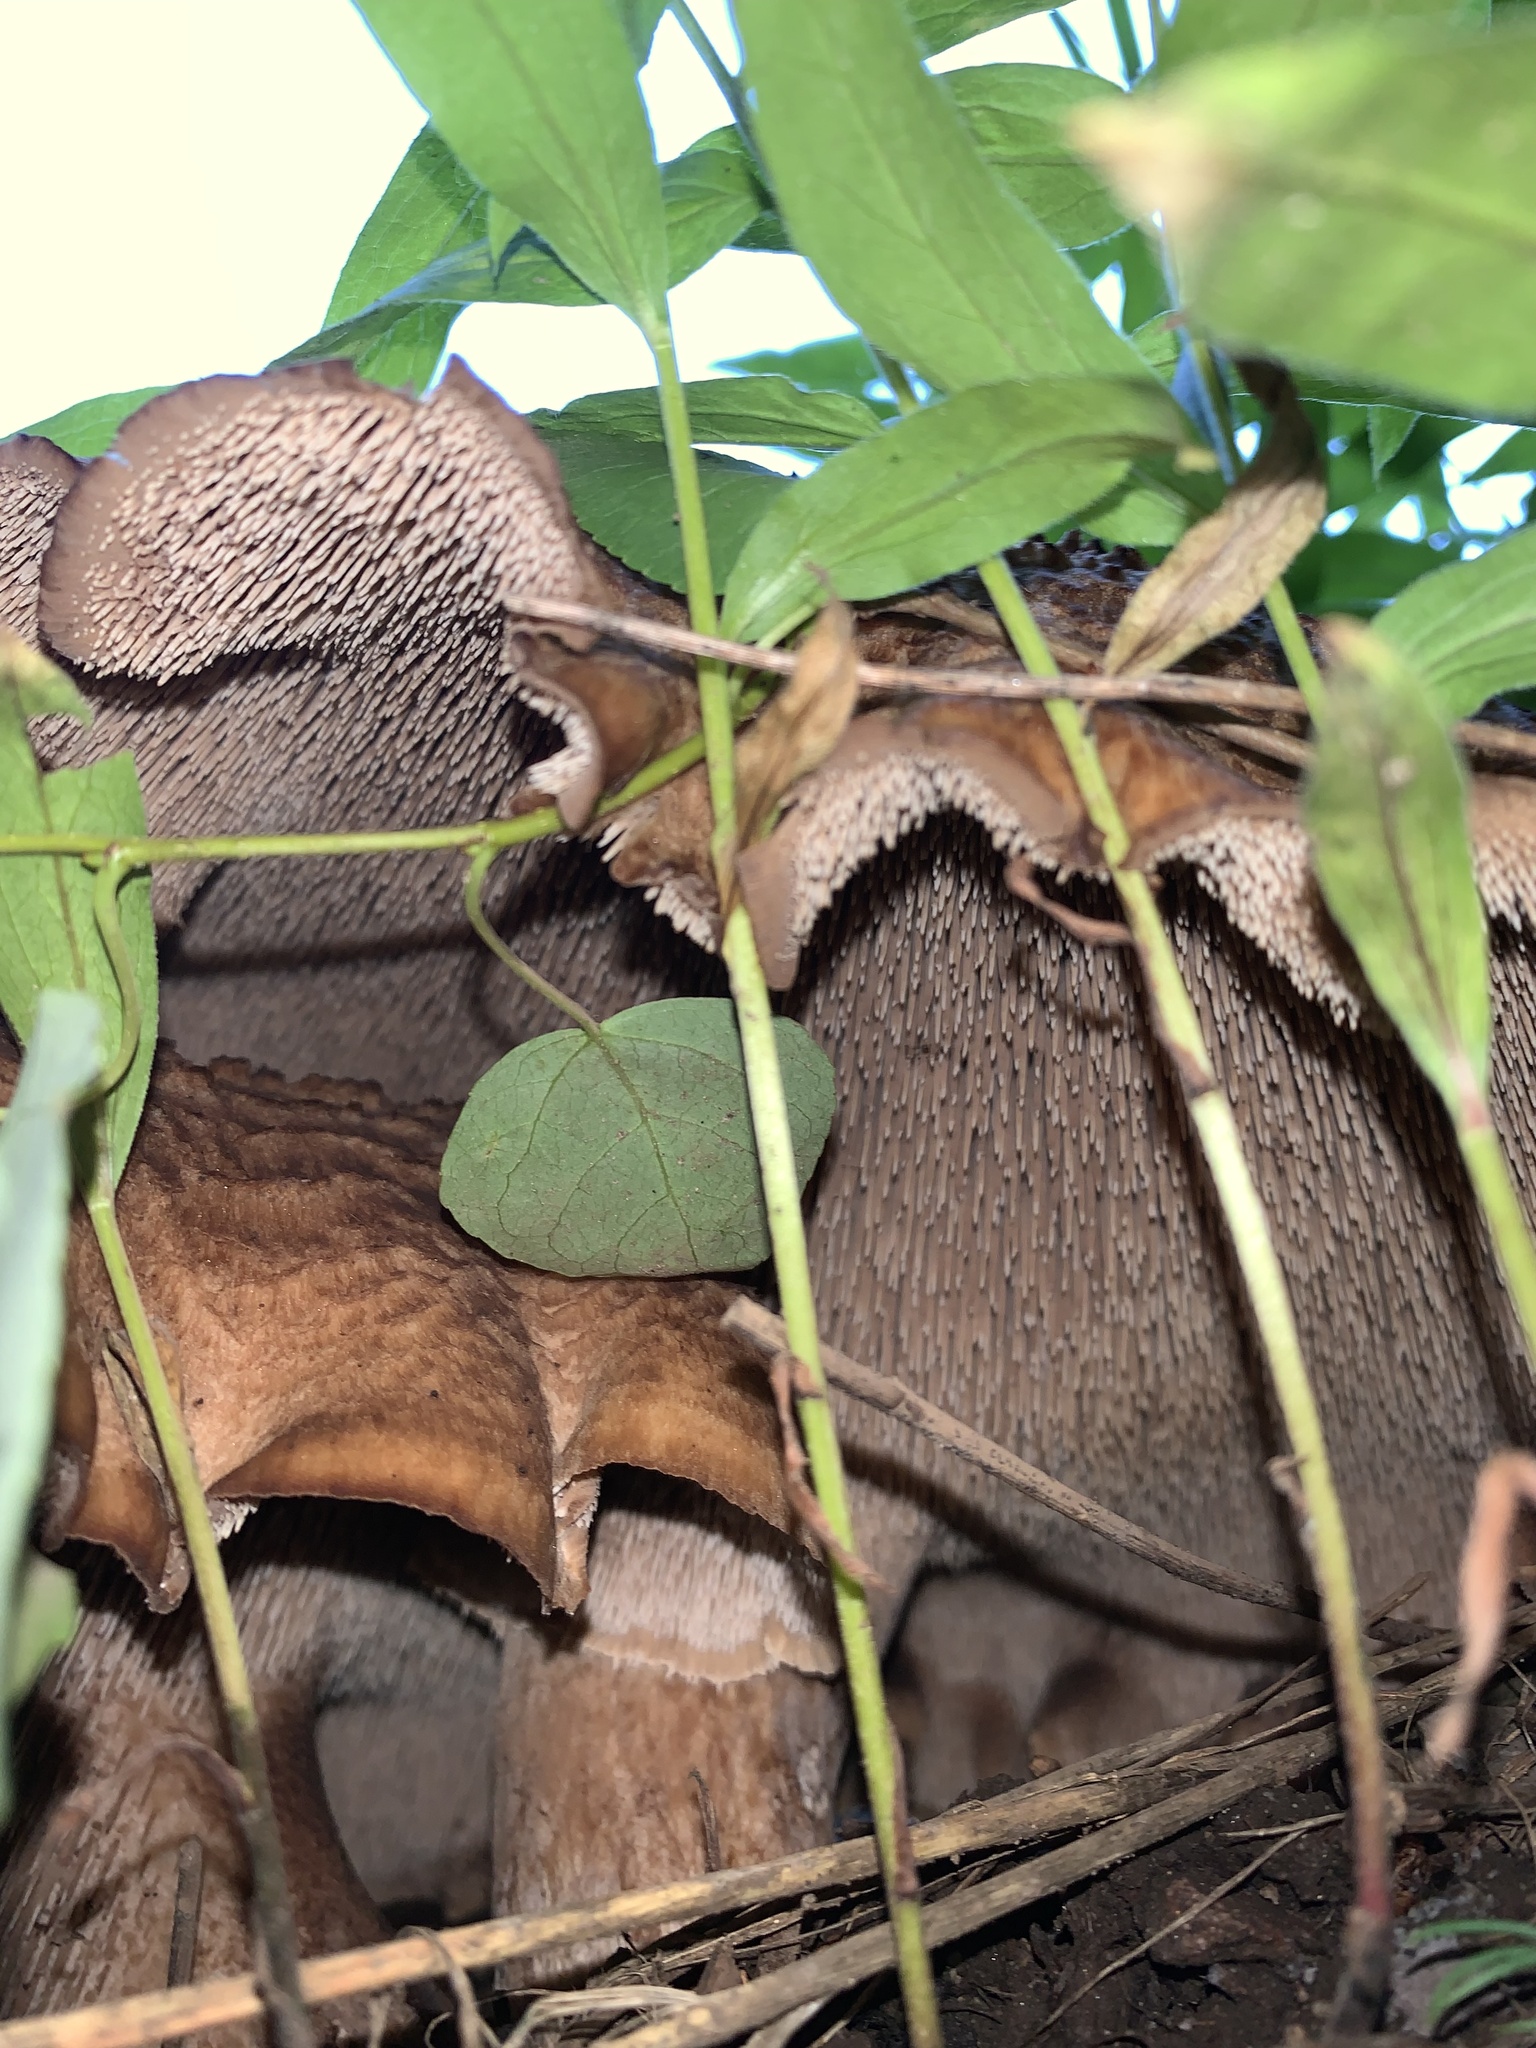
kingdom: Fungi
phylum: Basidiomycota
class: Agaricomycetes
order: Thelephorales
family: Bankeraceae
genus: Sarcodon
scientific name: Sarcodon imbricatus
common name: Shingled hedgehog
